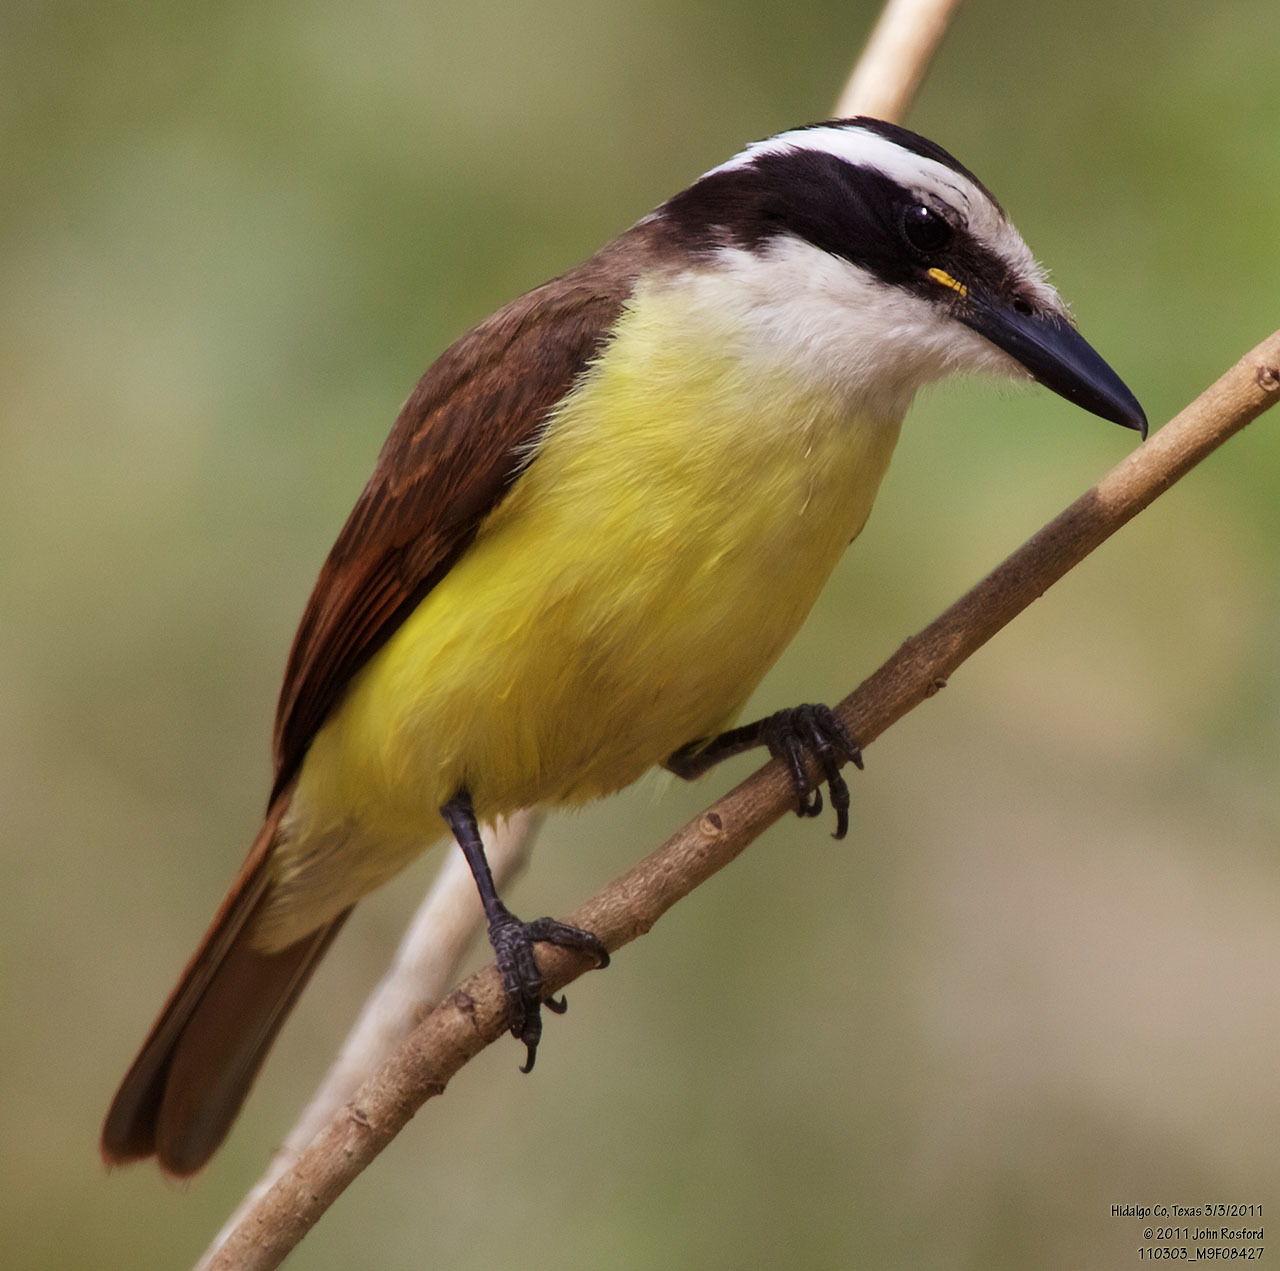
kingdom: Animalia
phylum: Chordata
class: Aves
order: Passeriformes
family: Tyrannidae
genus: Pitangus
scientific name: Pitangus sulphuratus
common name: Great kiskadee
